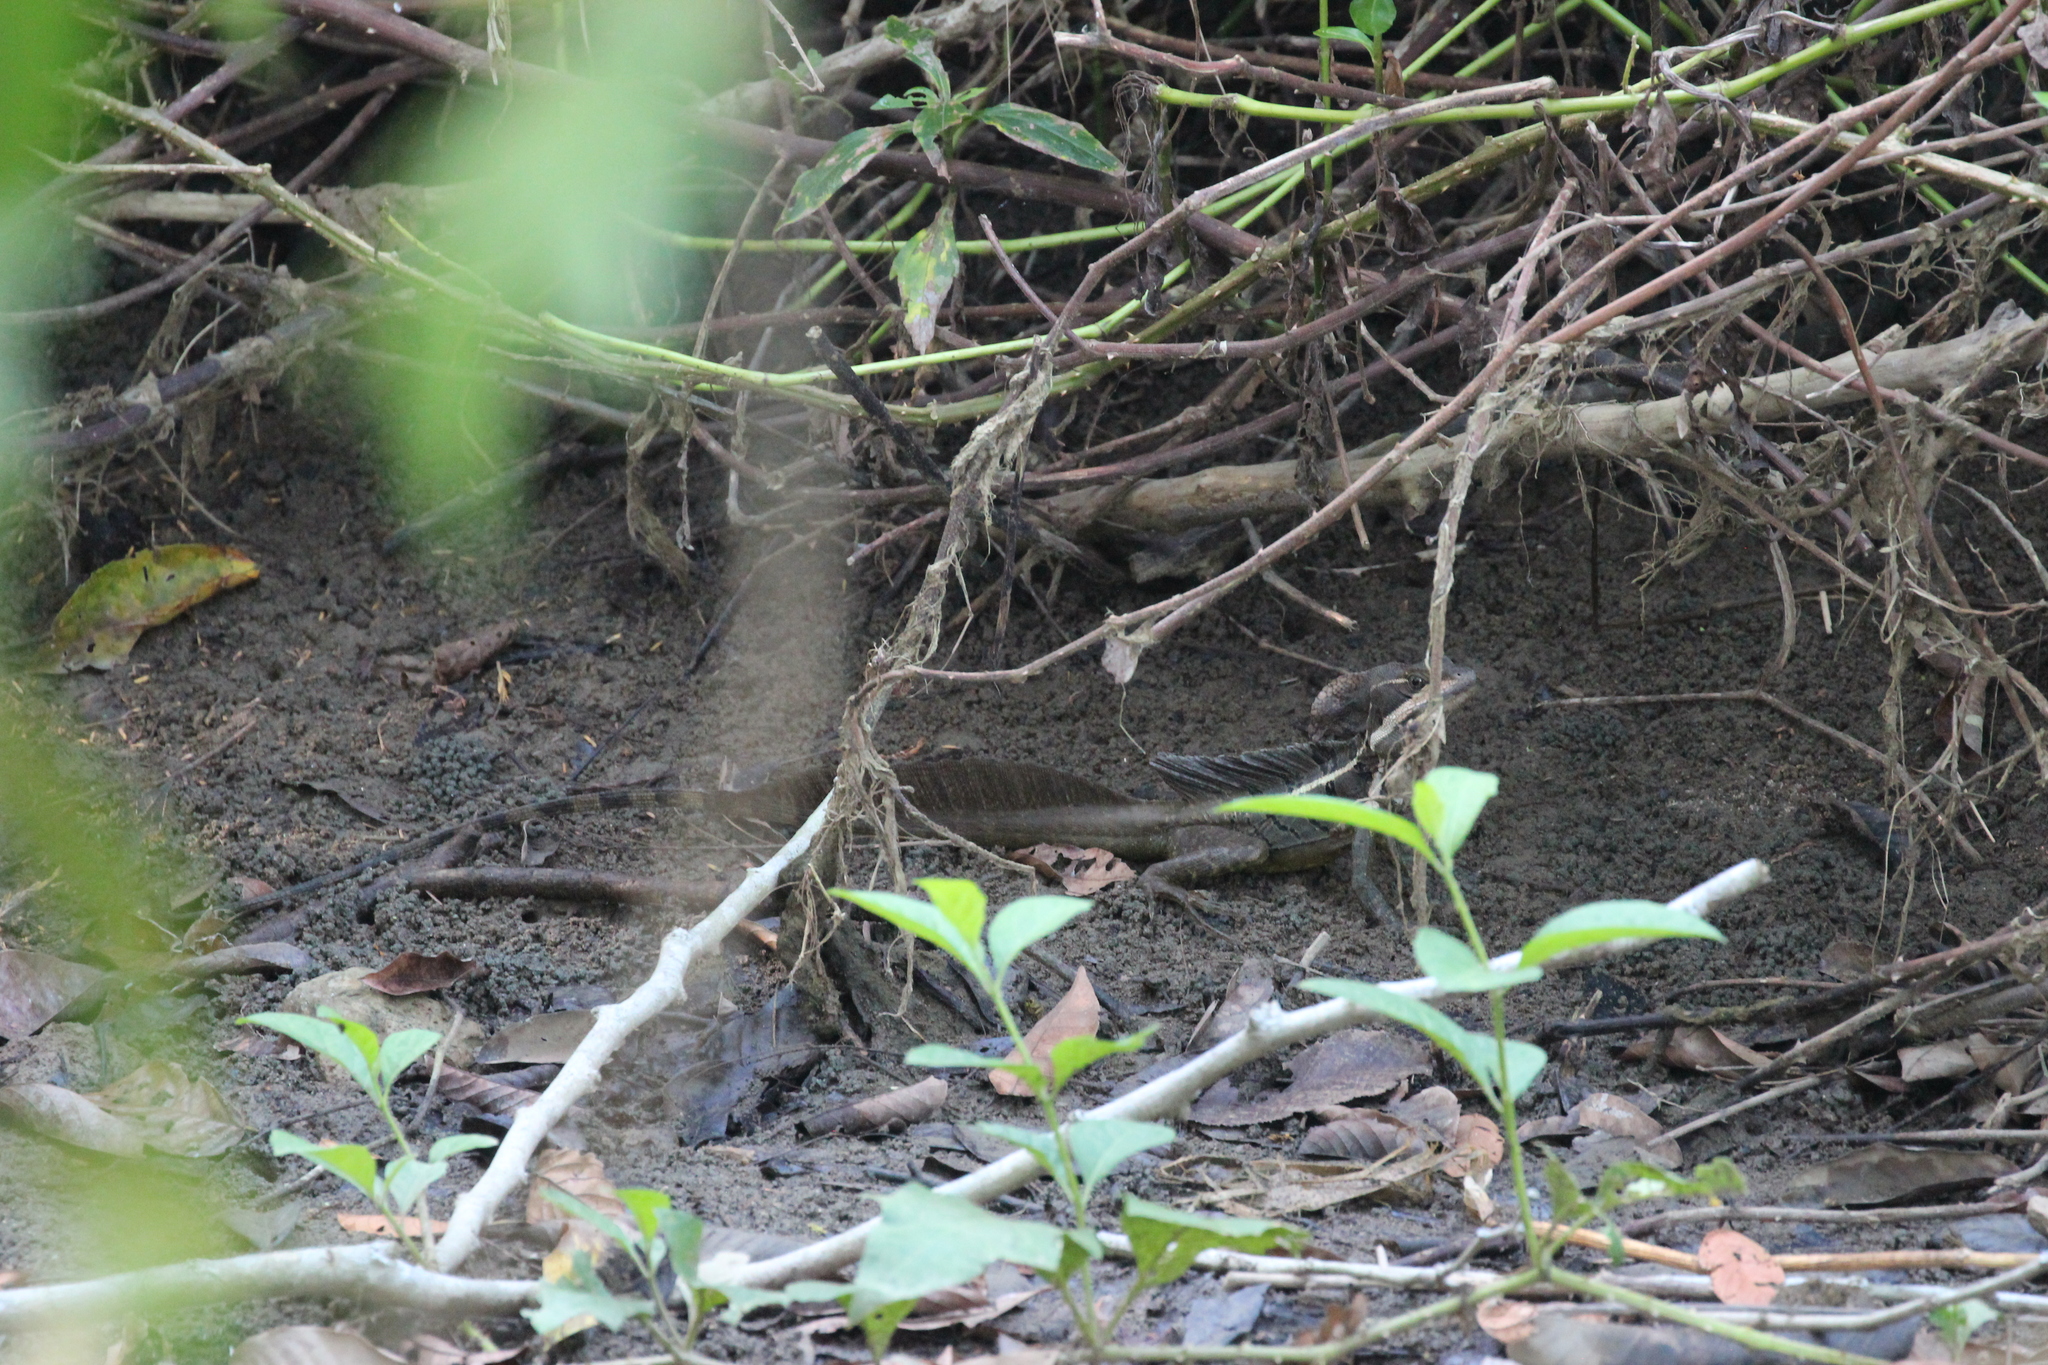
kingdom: Animalia
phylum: Chordata
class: Squamata
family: Corytophanidae
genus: Basiliscus
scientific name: Basiliscus basiliscus
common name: Common basilisk
